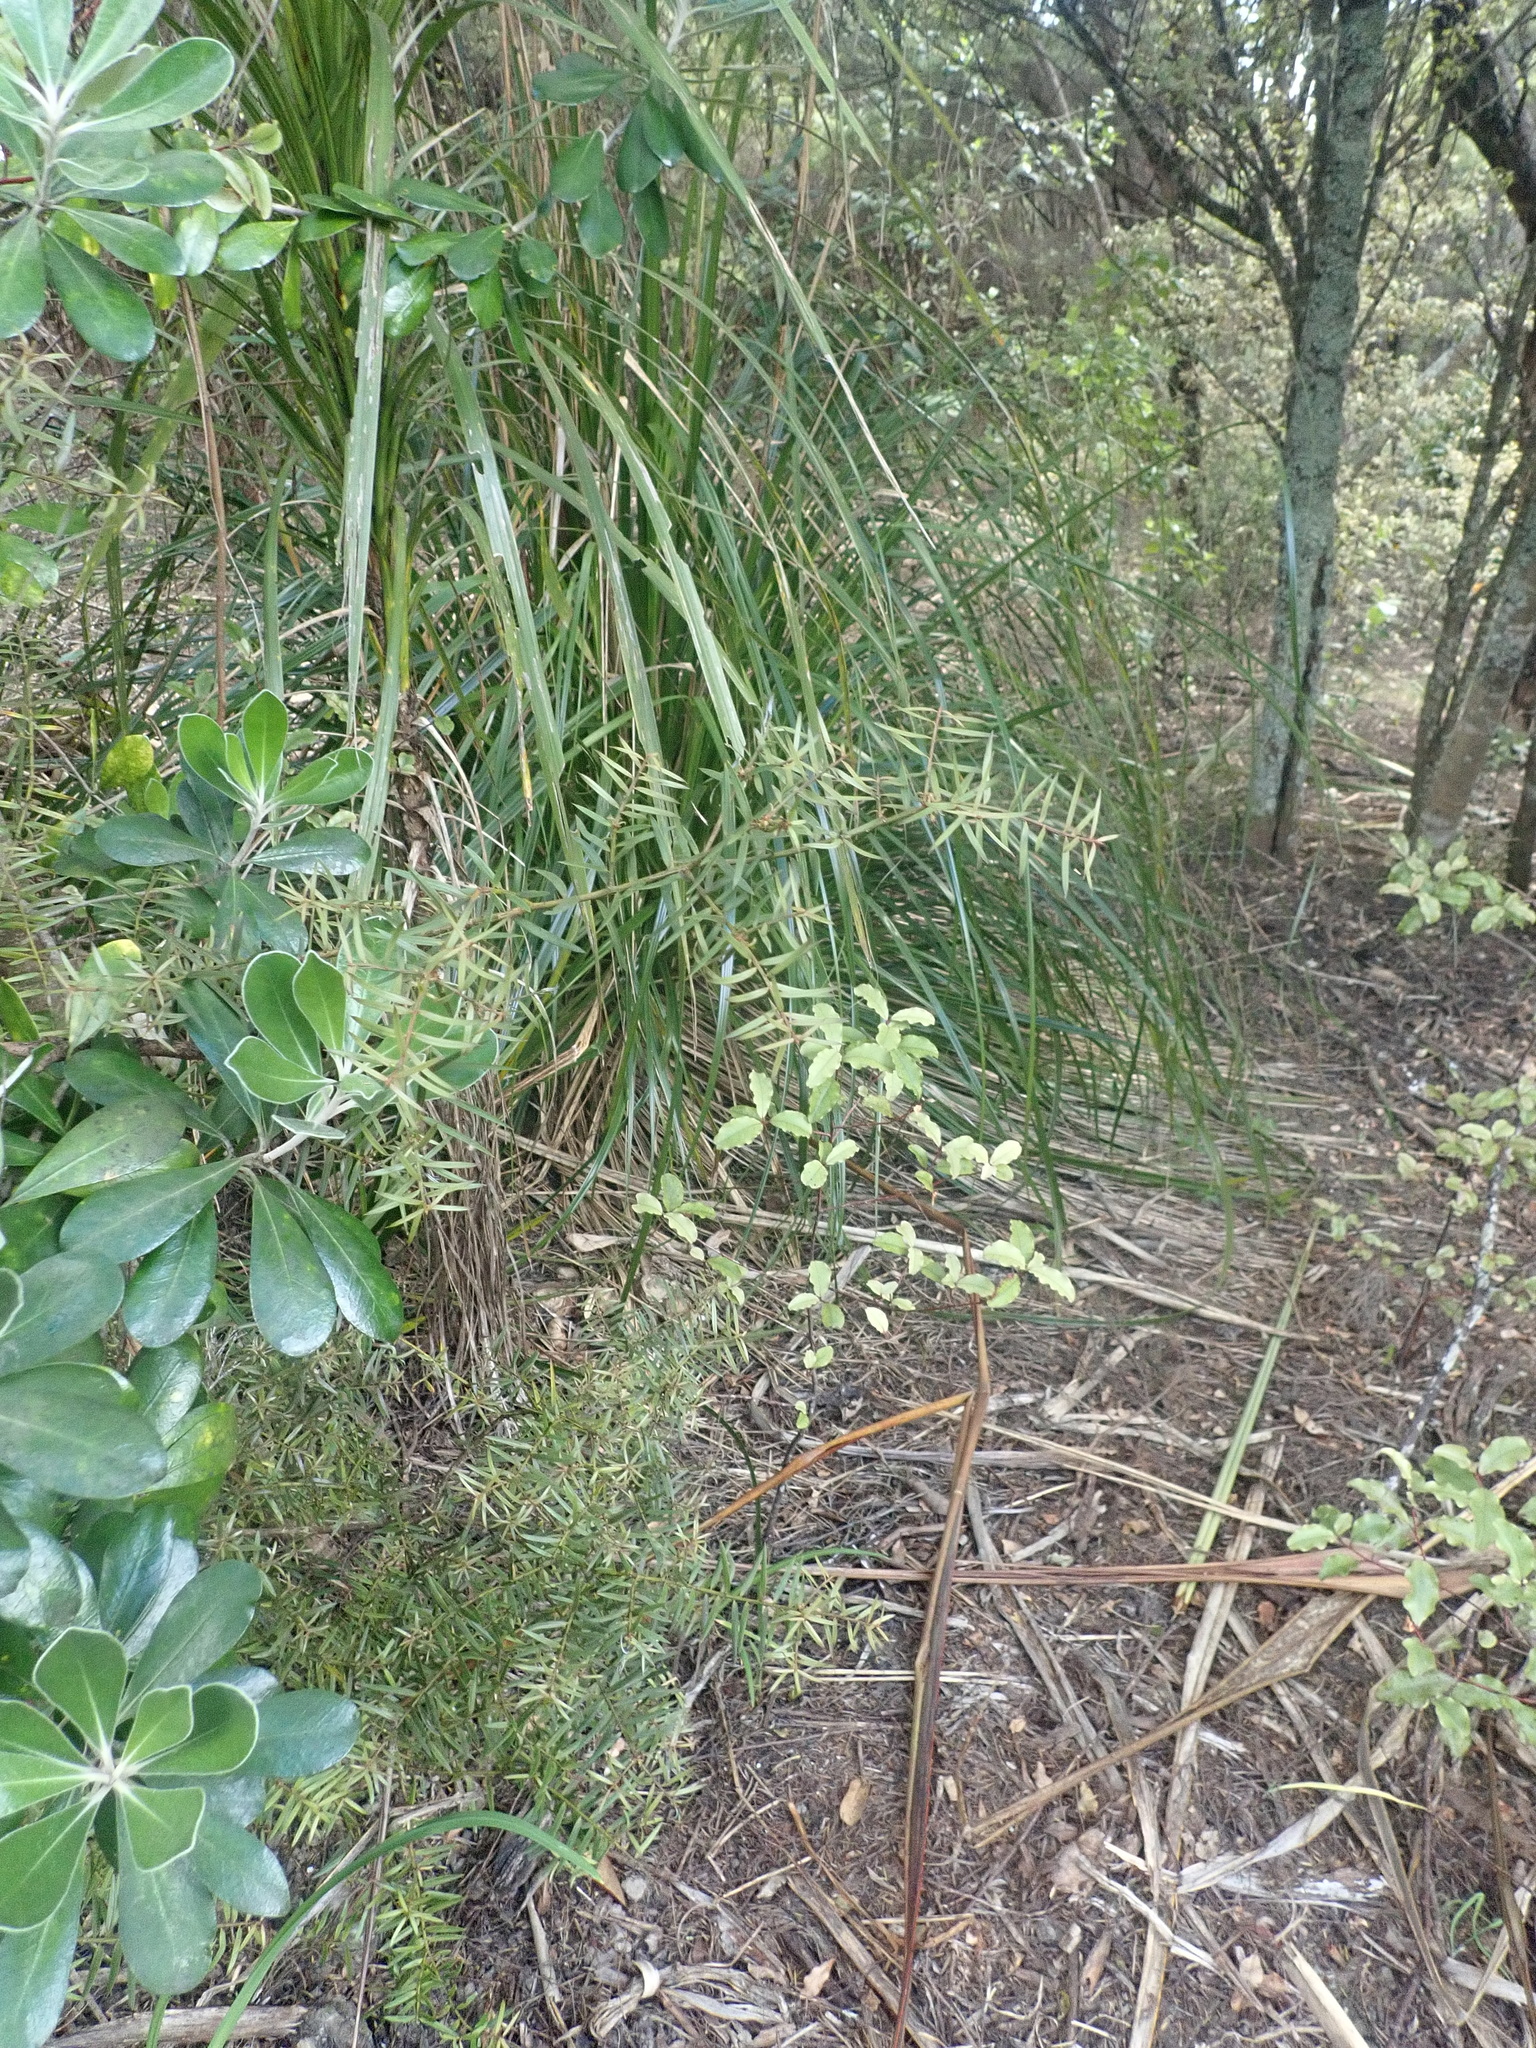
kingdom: Plantae
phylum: Tracheophyta
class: Pinopsida
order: Pinales
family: Podocarpaceae
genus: Podocarpus
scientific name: Podocarpus totara
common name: Totara
